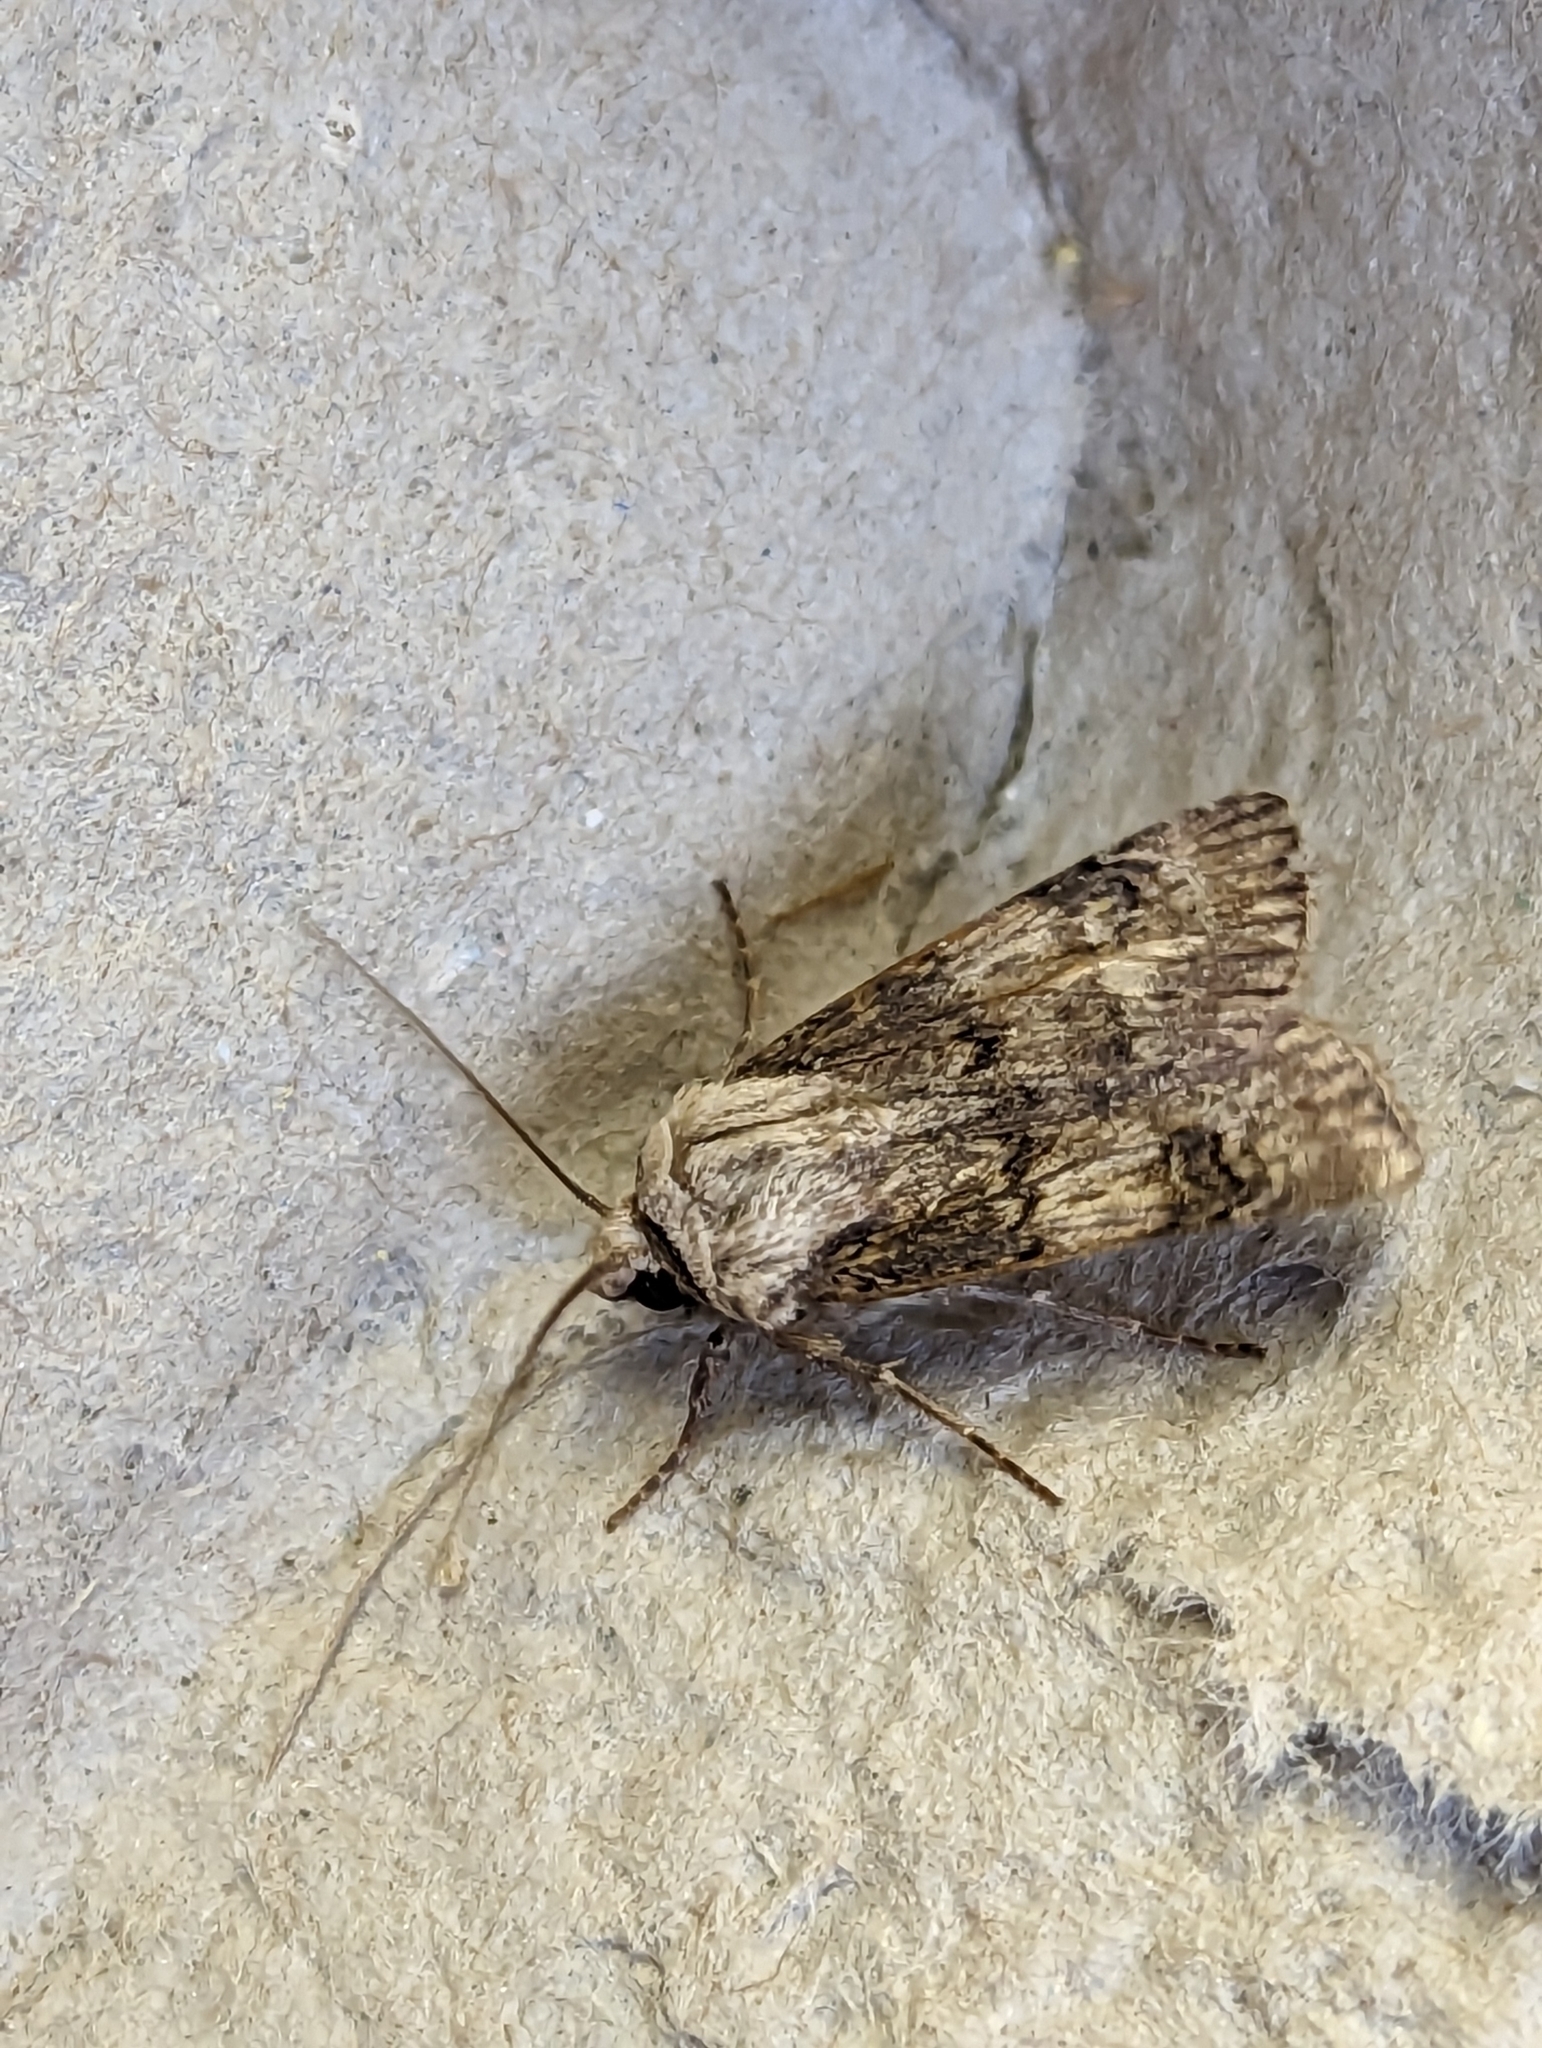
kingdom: Animalia
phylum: Arthropoda
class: Insecta
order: Lepidoptera
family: Noctuidae
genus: Agrotis
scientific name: Agrotis puta
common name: Shuttle-shaped dart
